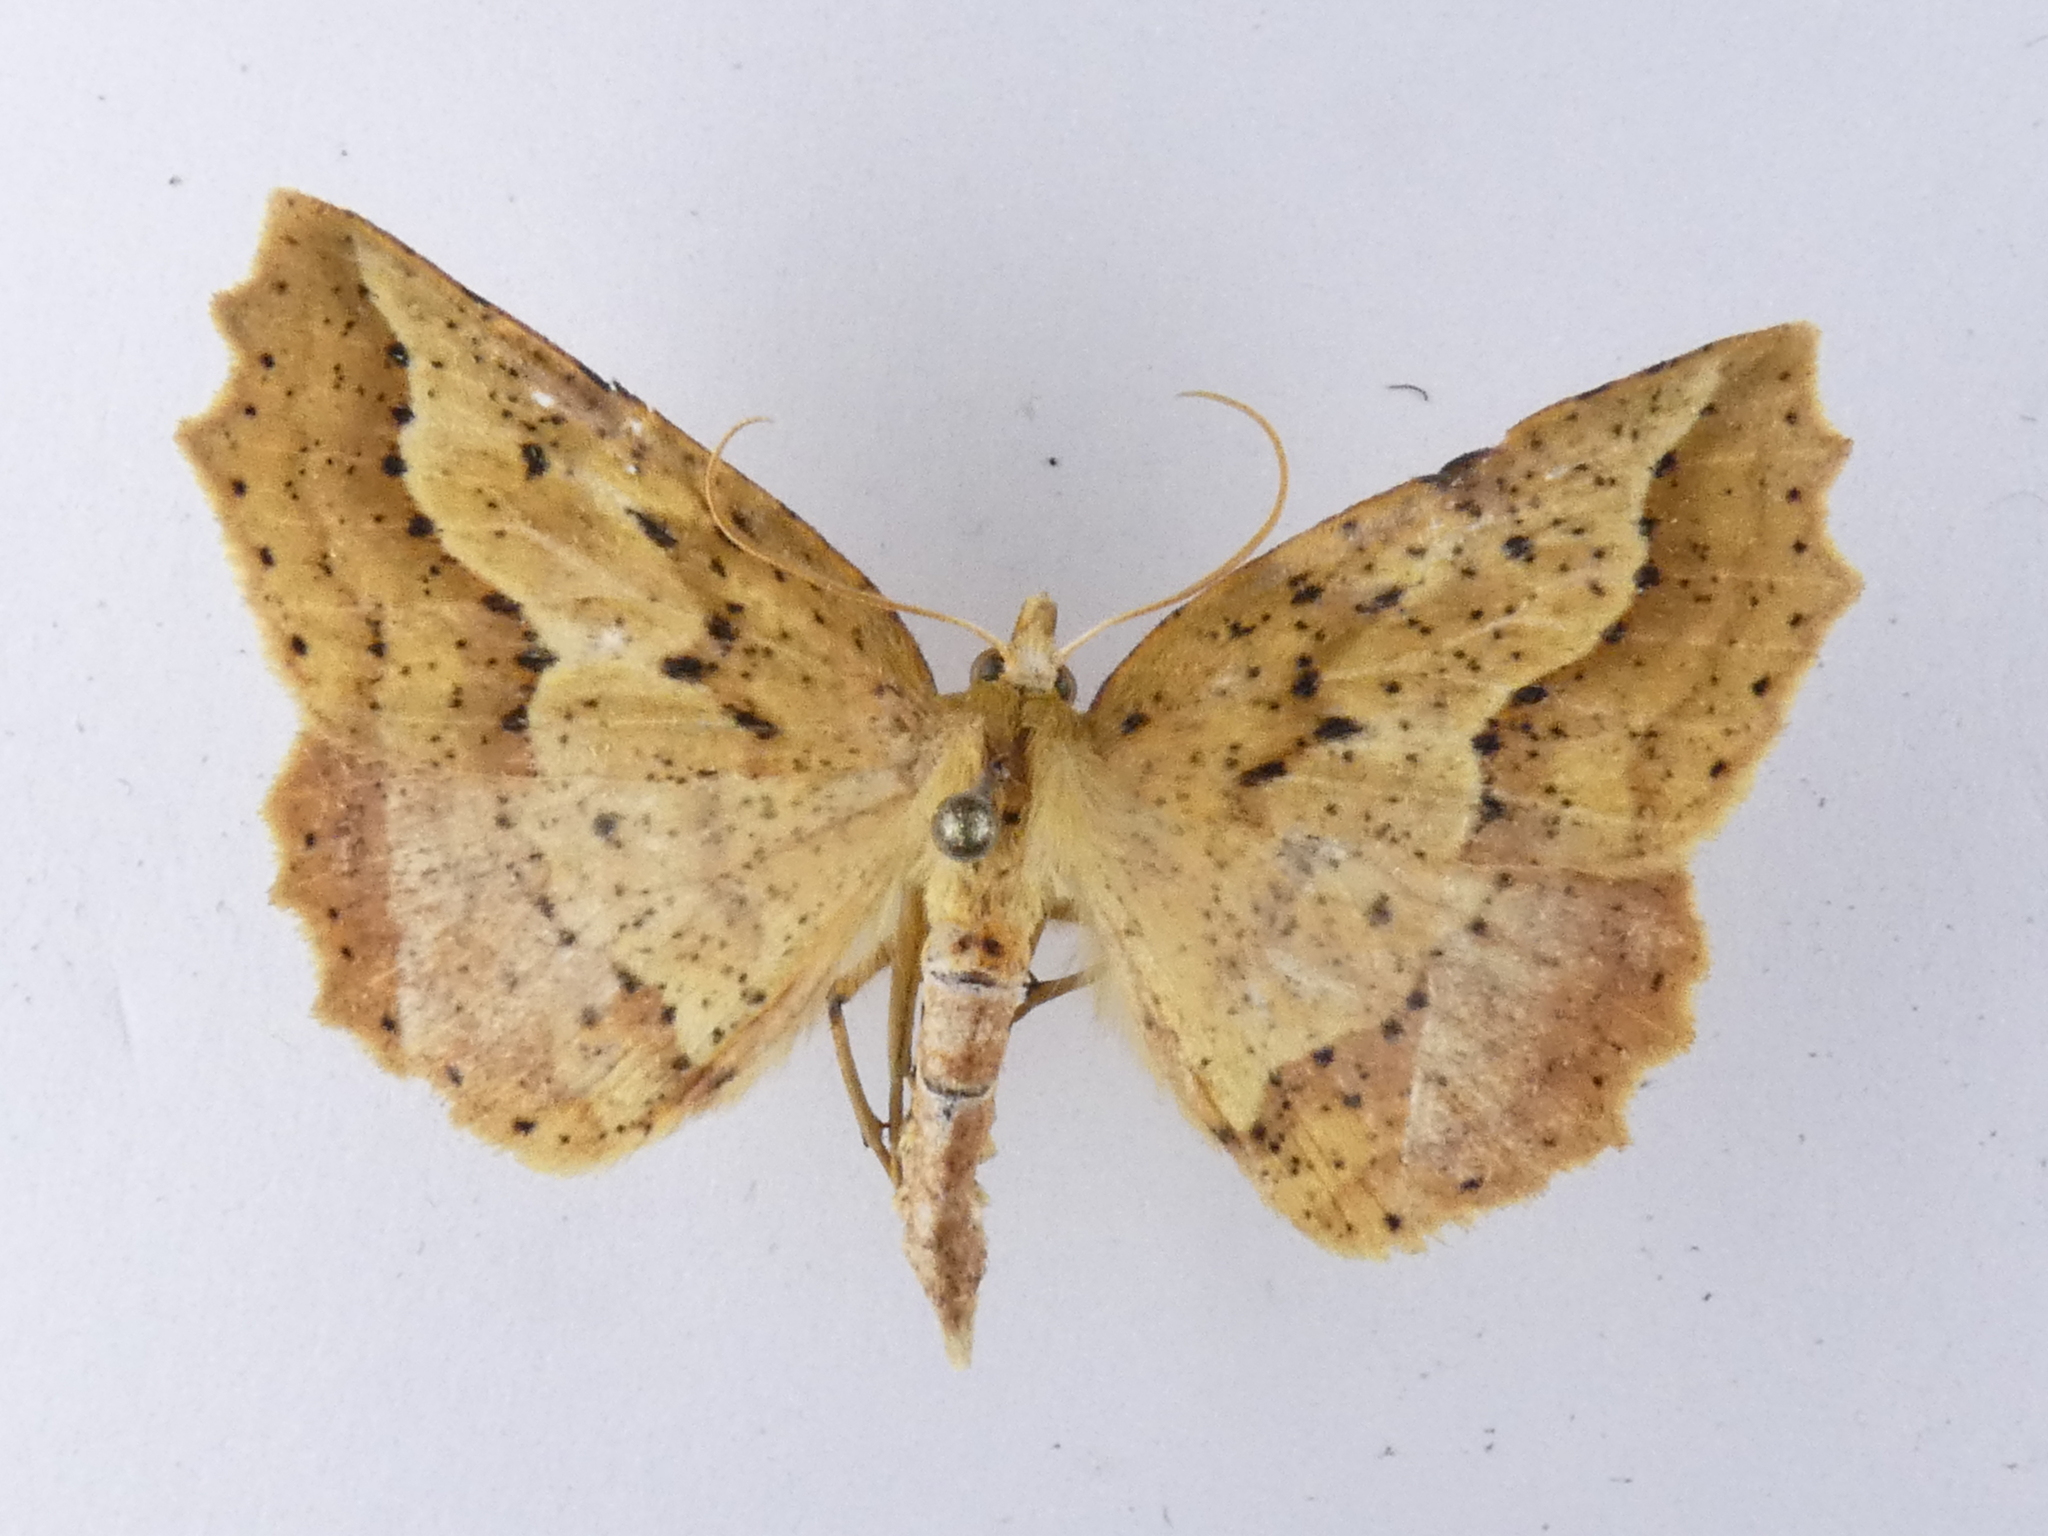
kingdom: Animalia
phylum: Arthropoda
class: Insecta
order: Lepidoptera
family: Geometridae
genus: Ischalis
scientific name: Ischalis variabilis
